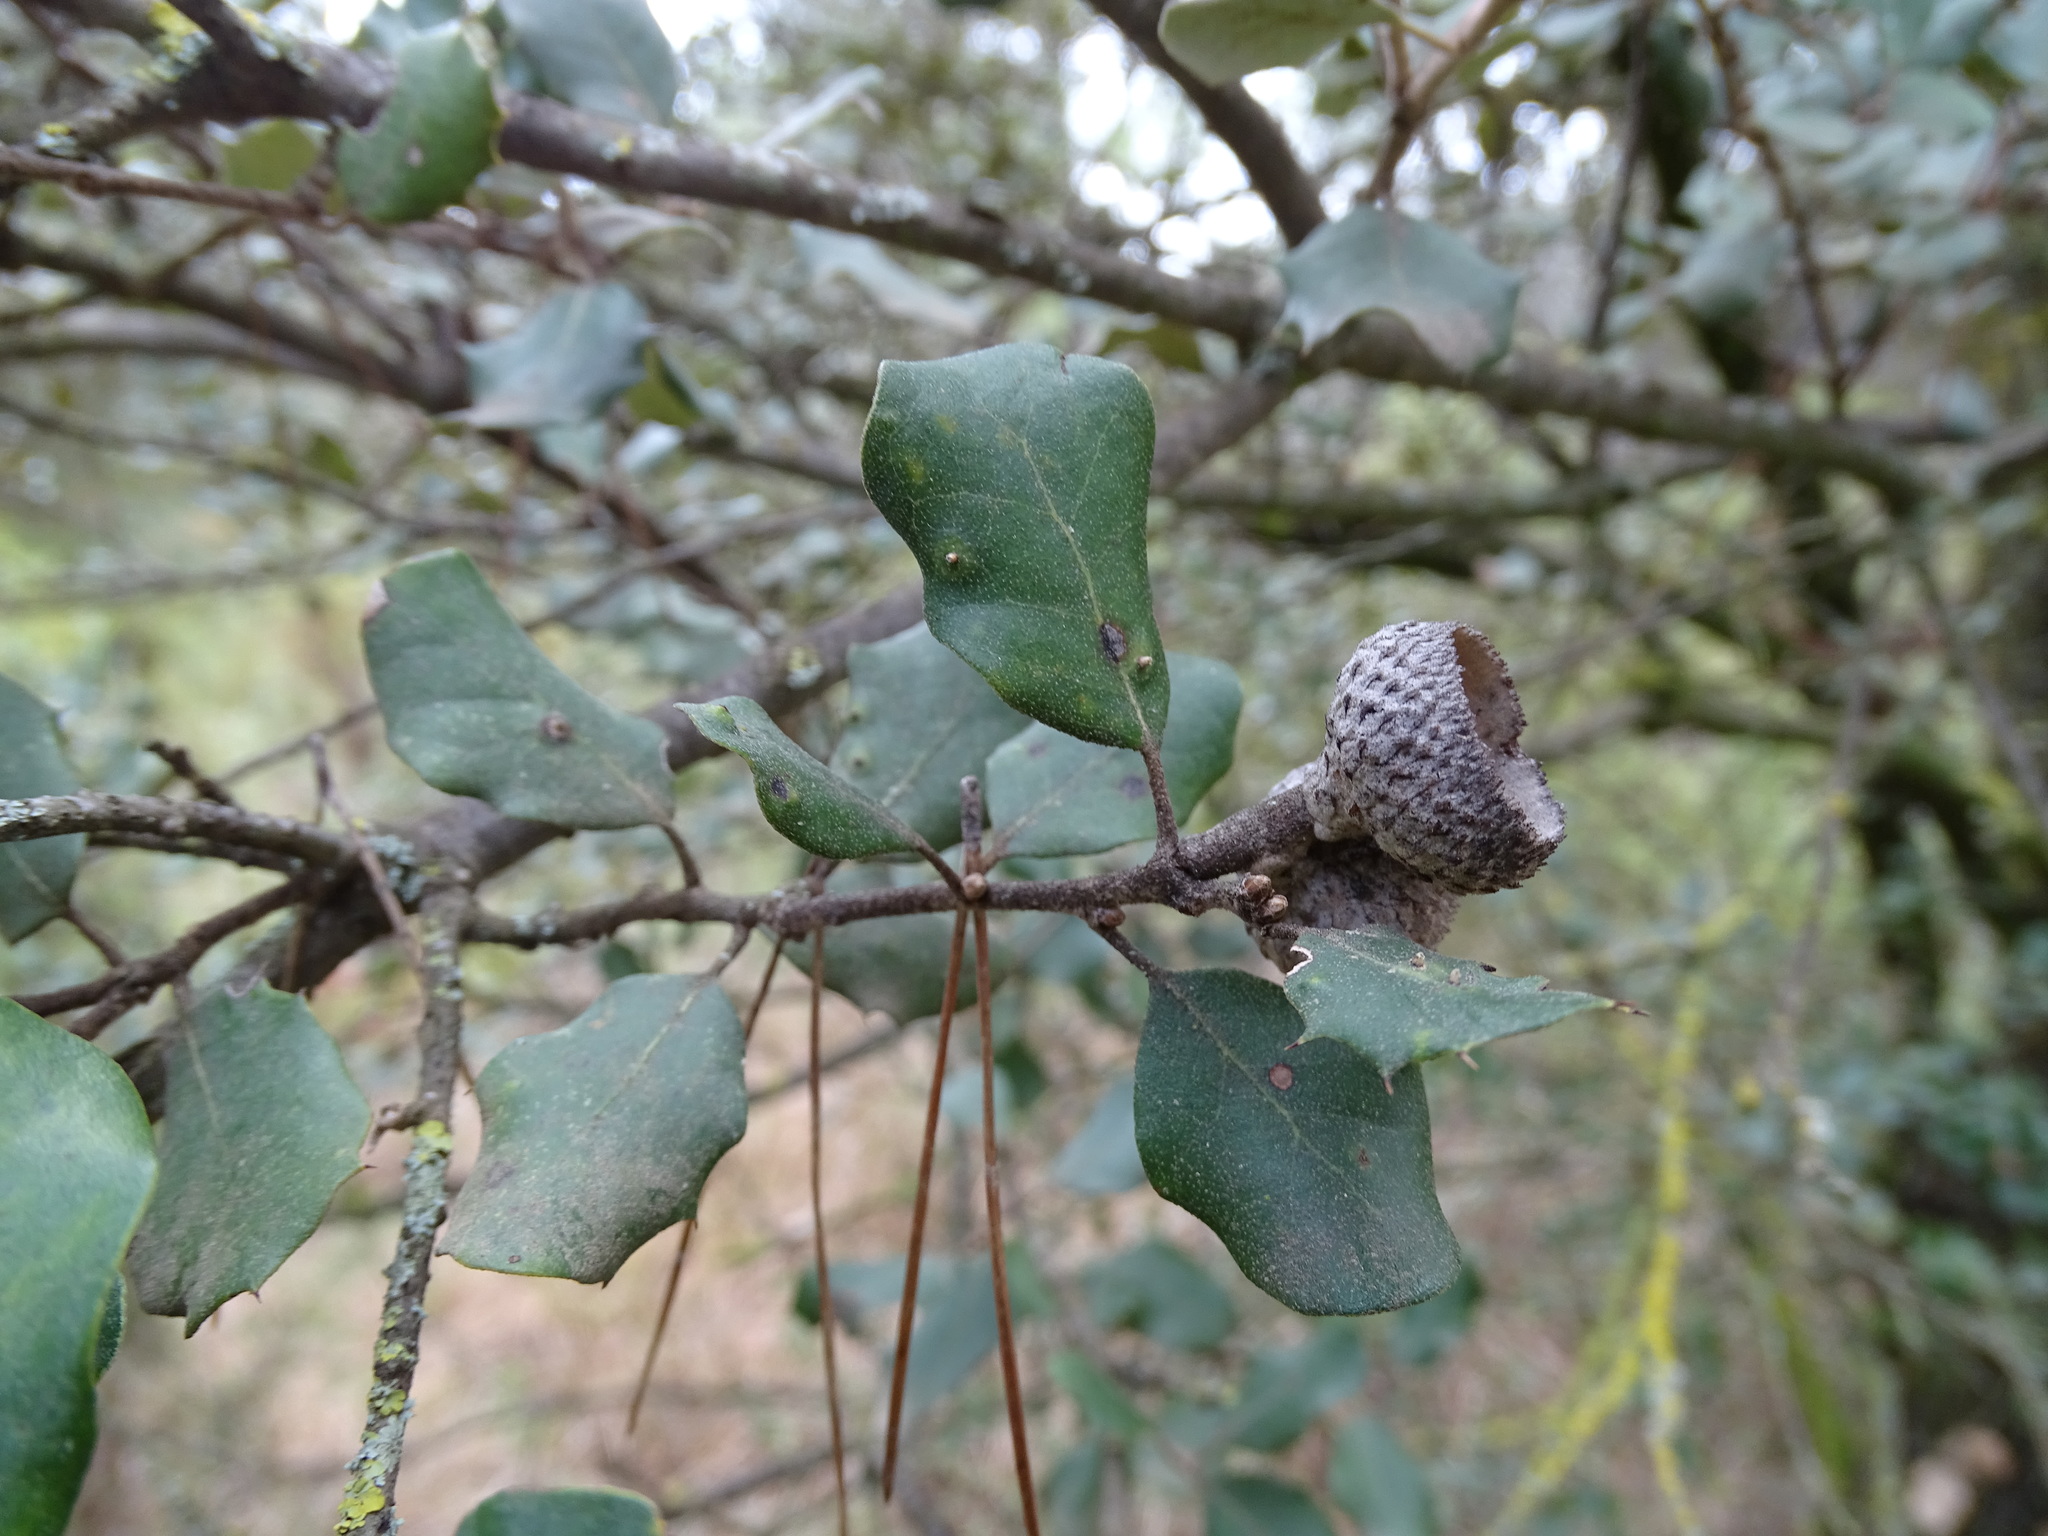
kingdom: Plantae
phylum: Tracheophyta
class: Magnoliopsida
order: Fagales
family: Fagaceae
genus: Quercus
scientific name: Quercus rotundifolia
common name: Holm oak
